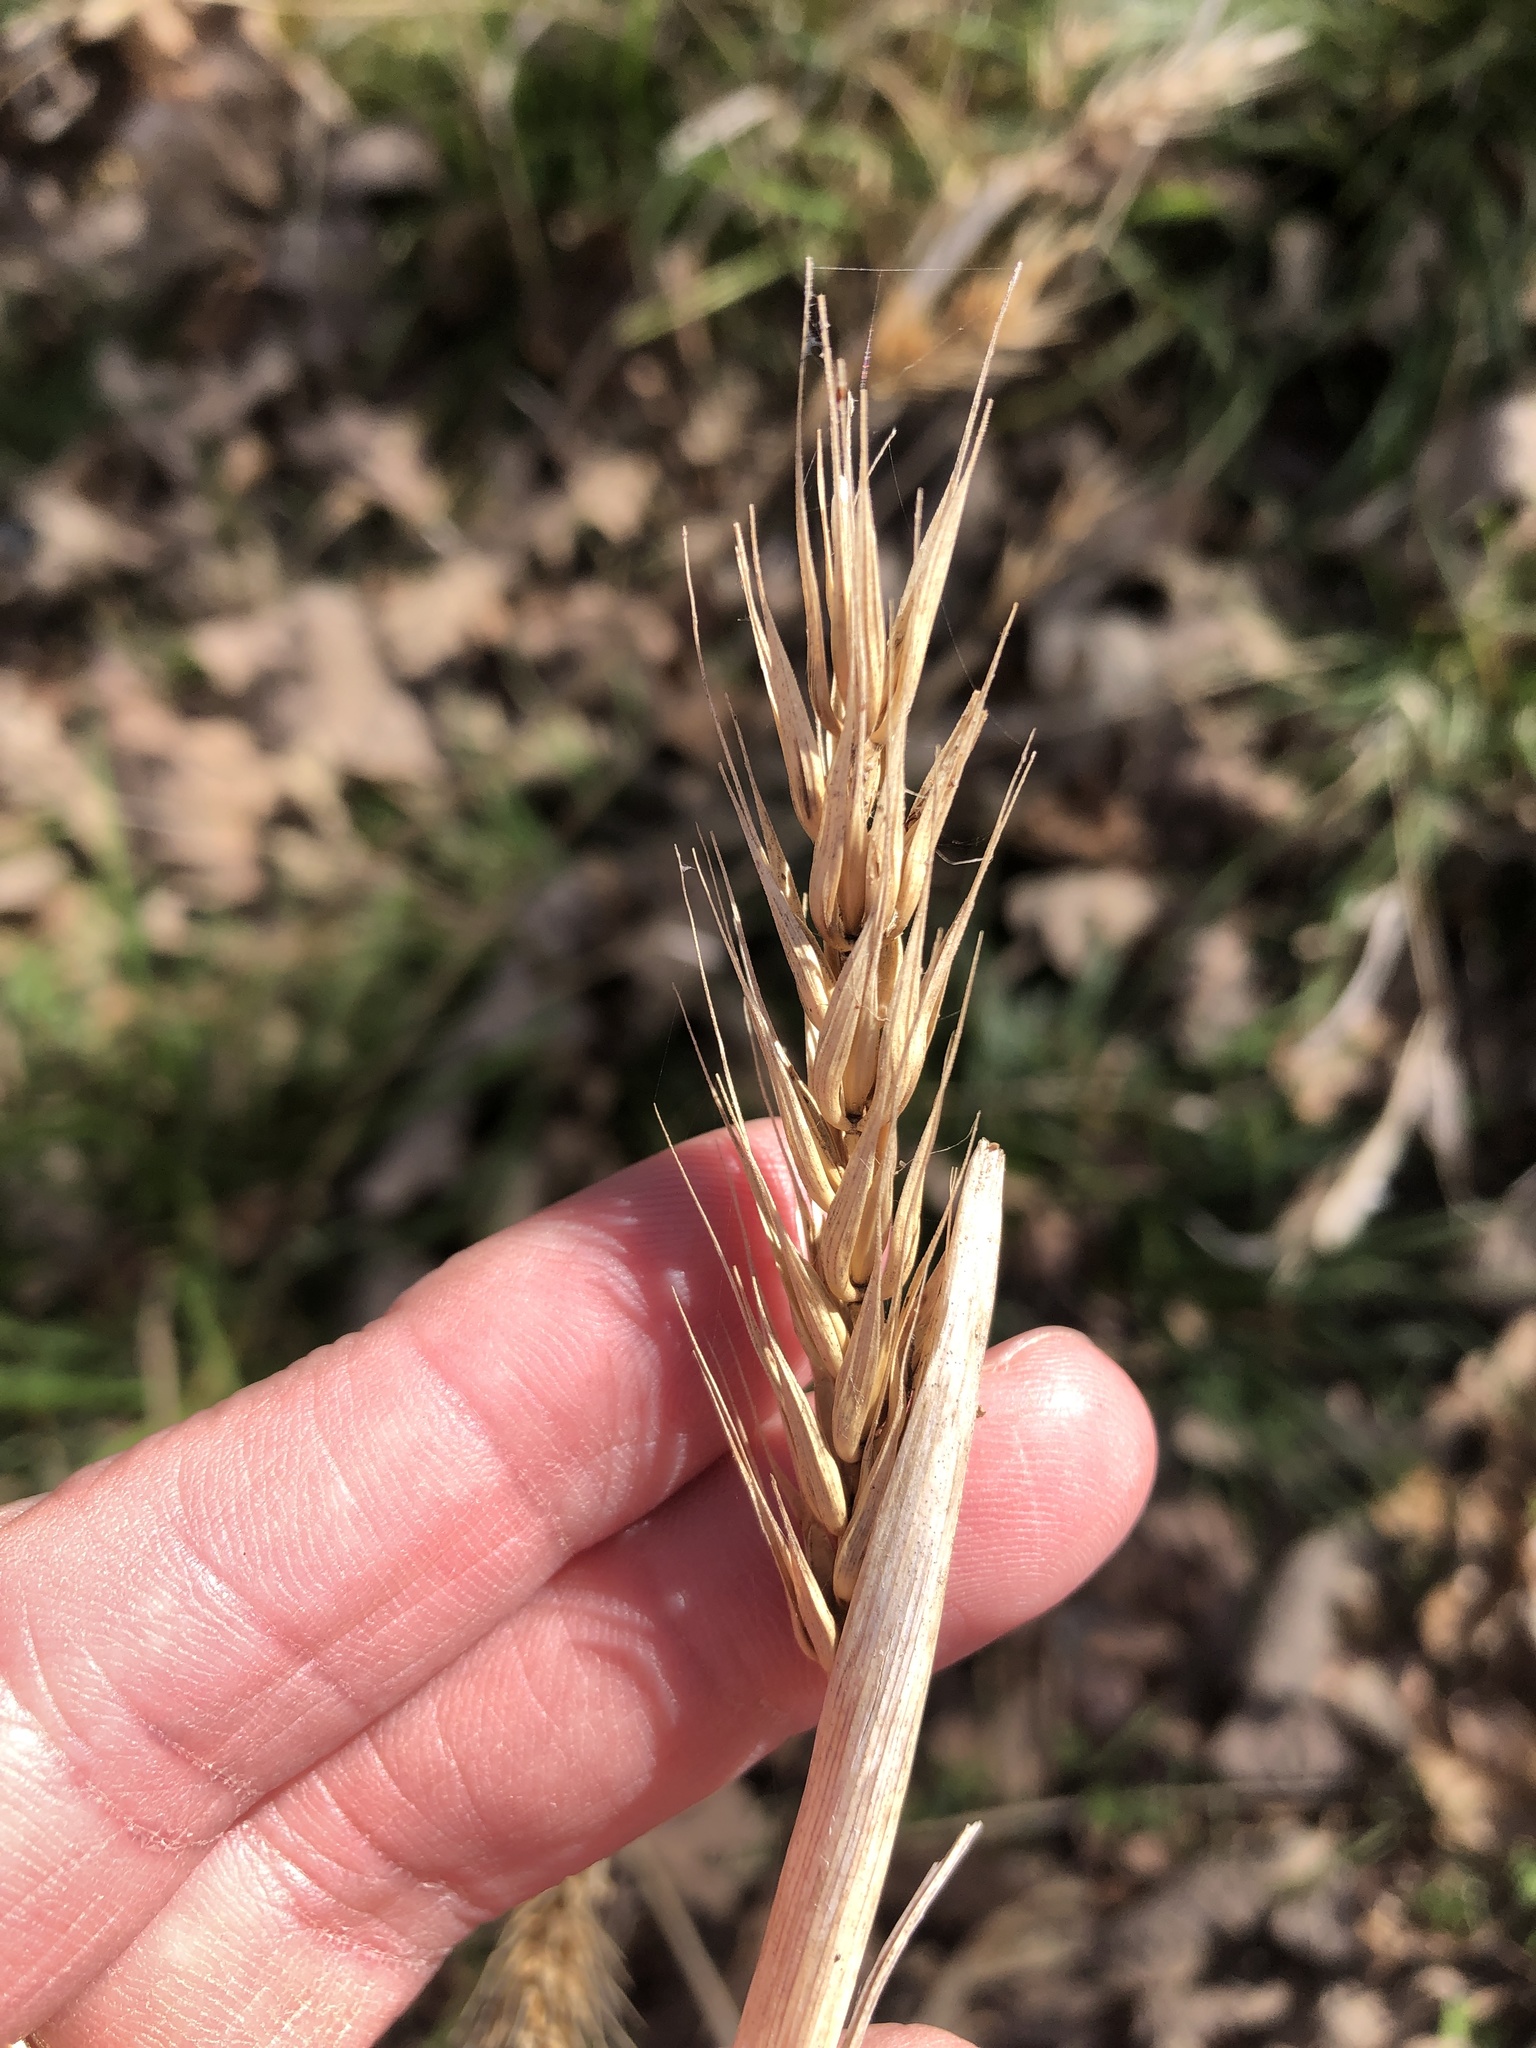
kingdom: Plantae
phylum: Tracheophyta
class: Liliopsida
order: Poales
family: Poaceae
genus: Elymus
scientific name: Elymus virginicus
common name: Common eastern wildrye
